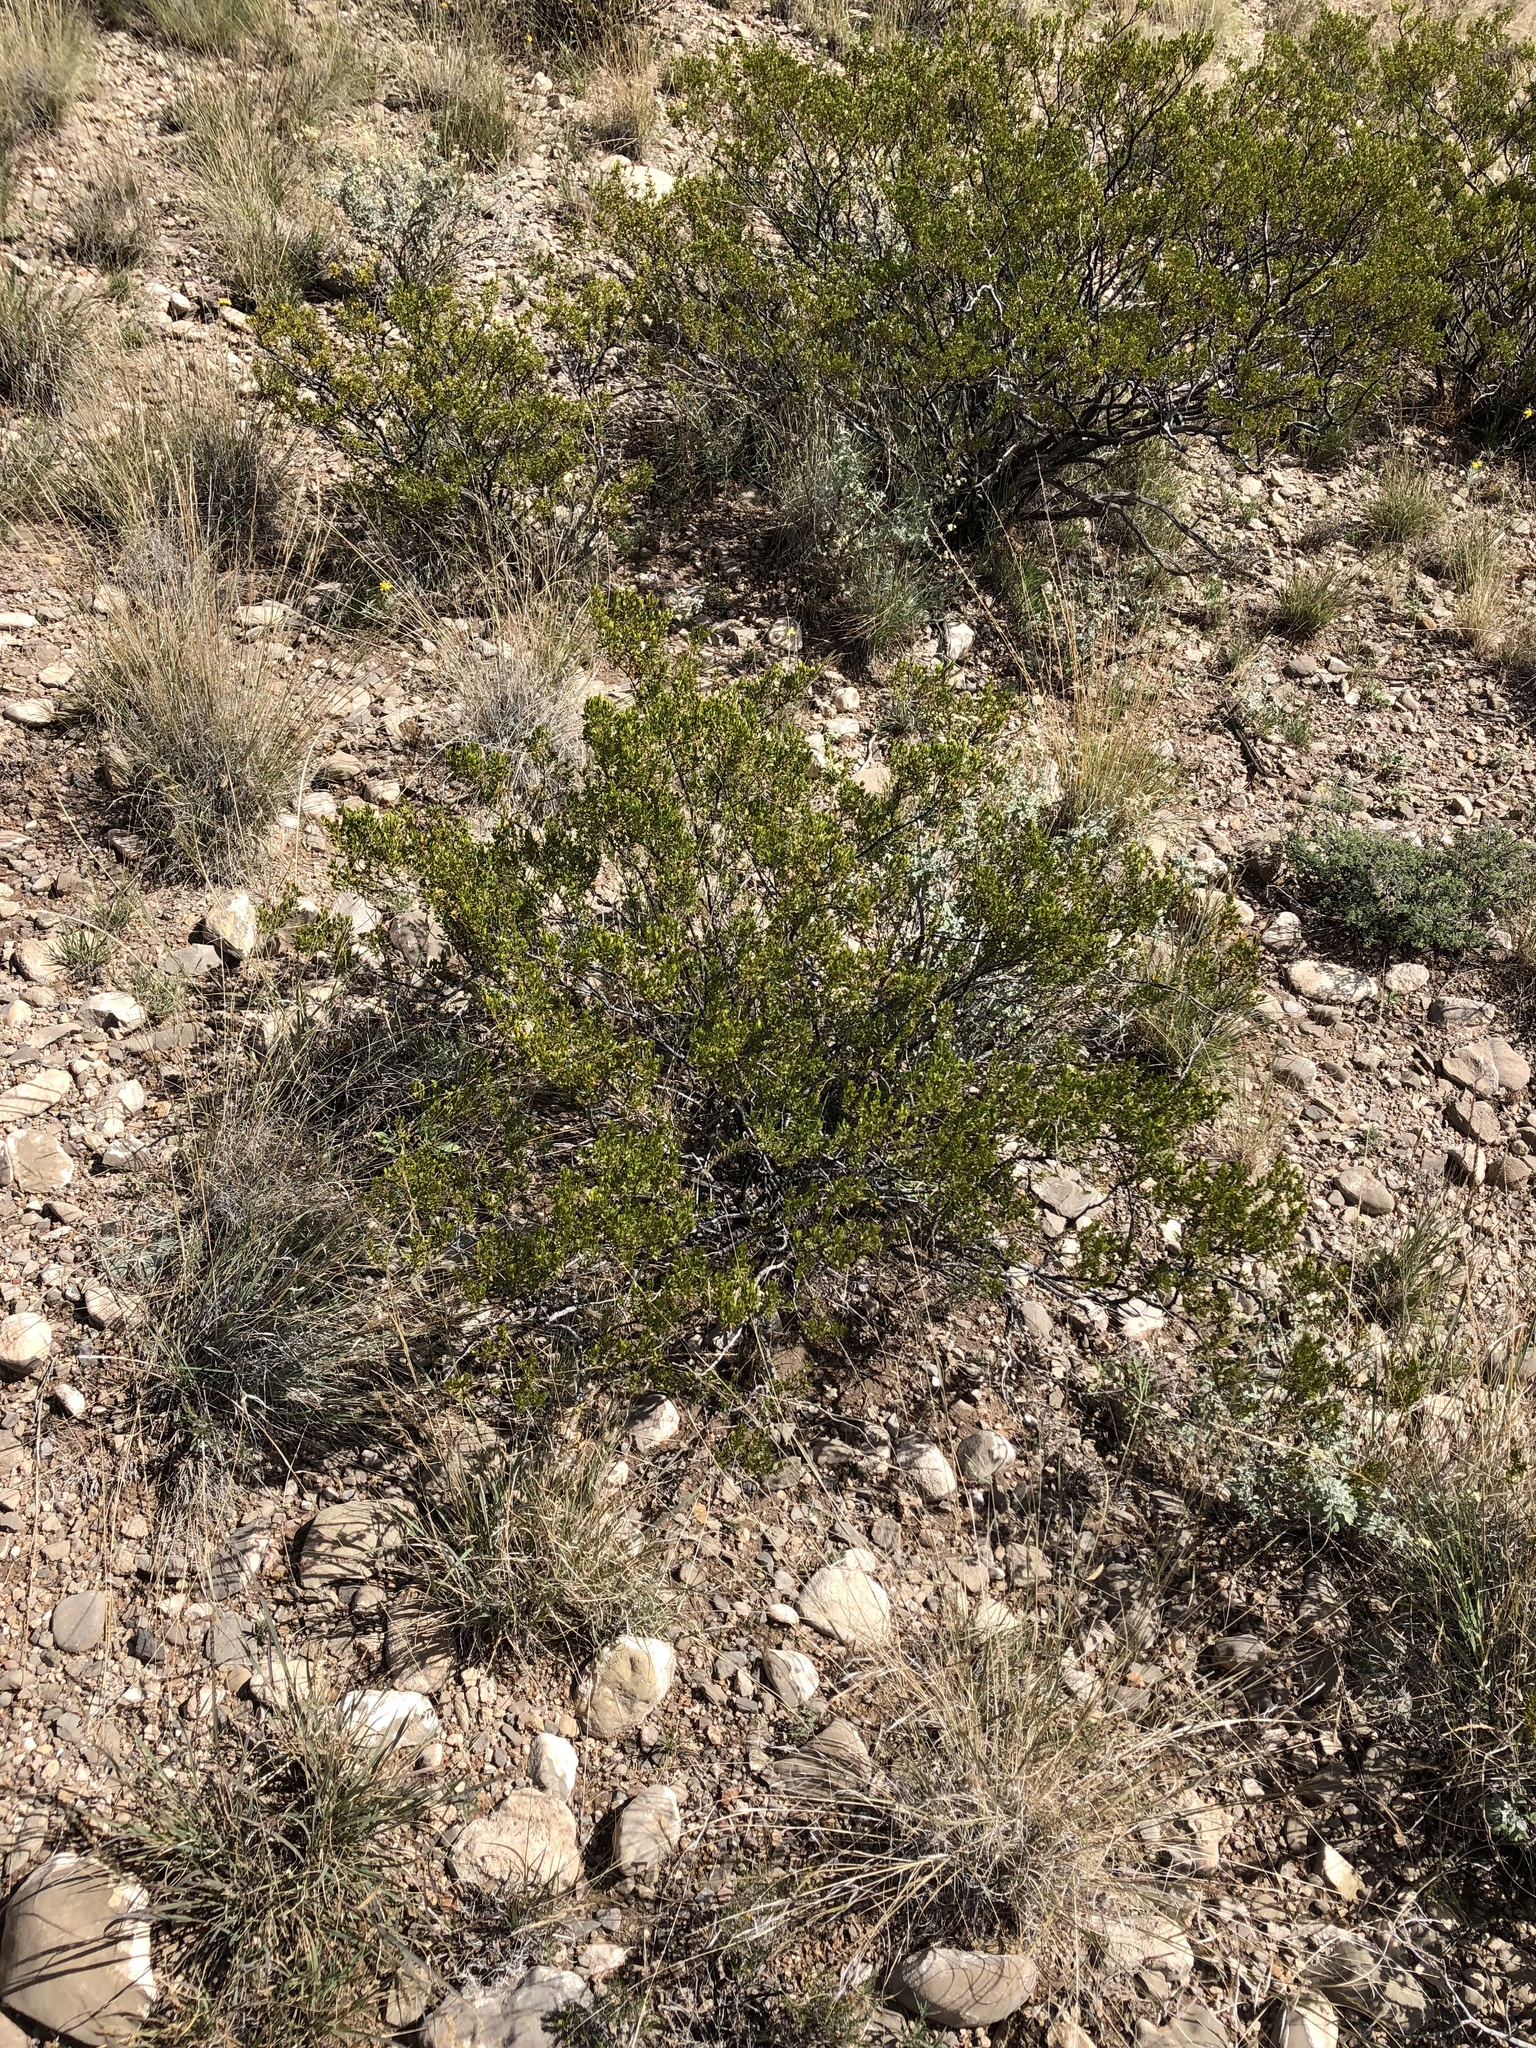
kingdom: Plantae
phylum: Tracheophyta
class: Magnoliopsida
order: Zygophyllales
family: Zygophyllaceae
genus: Larrea
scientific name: Larrea tridentata
